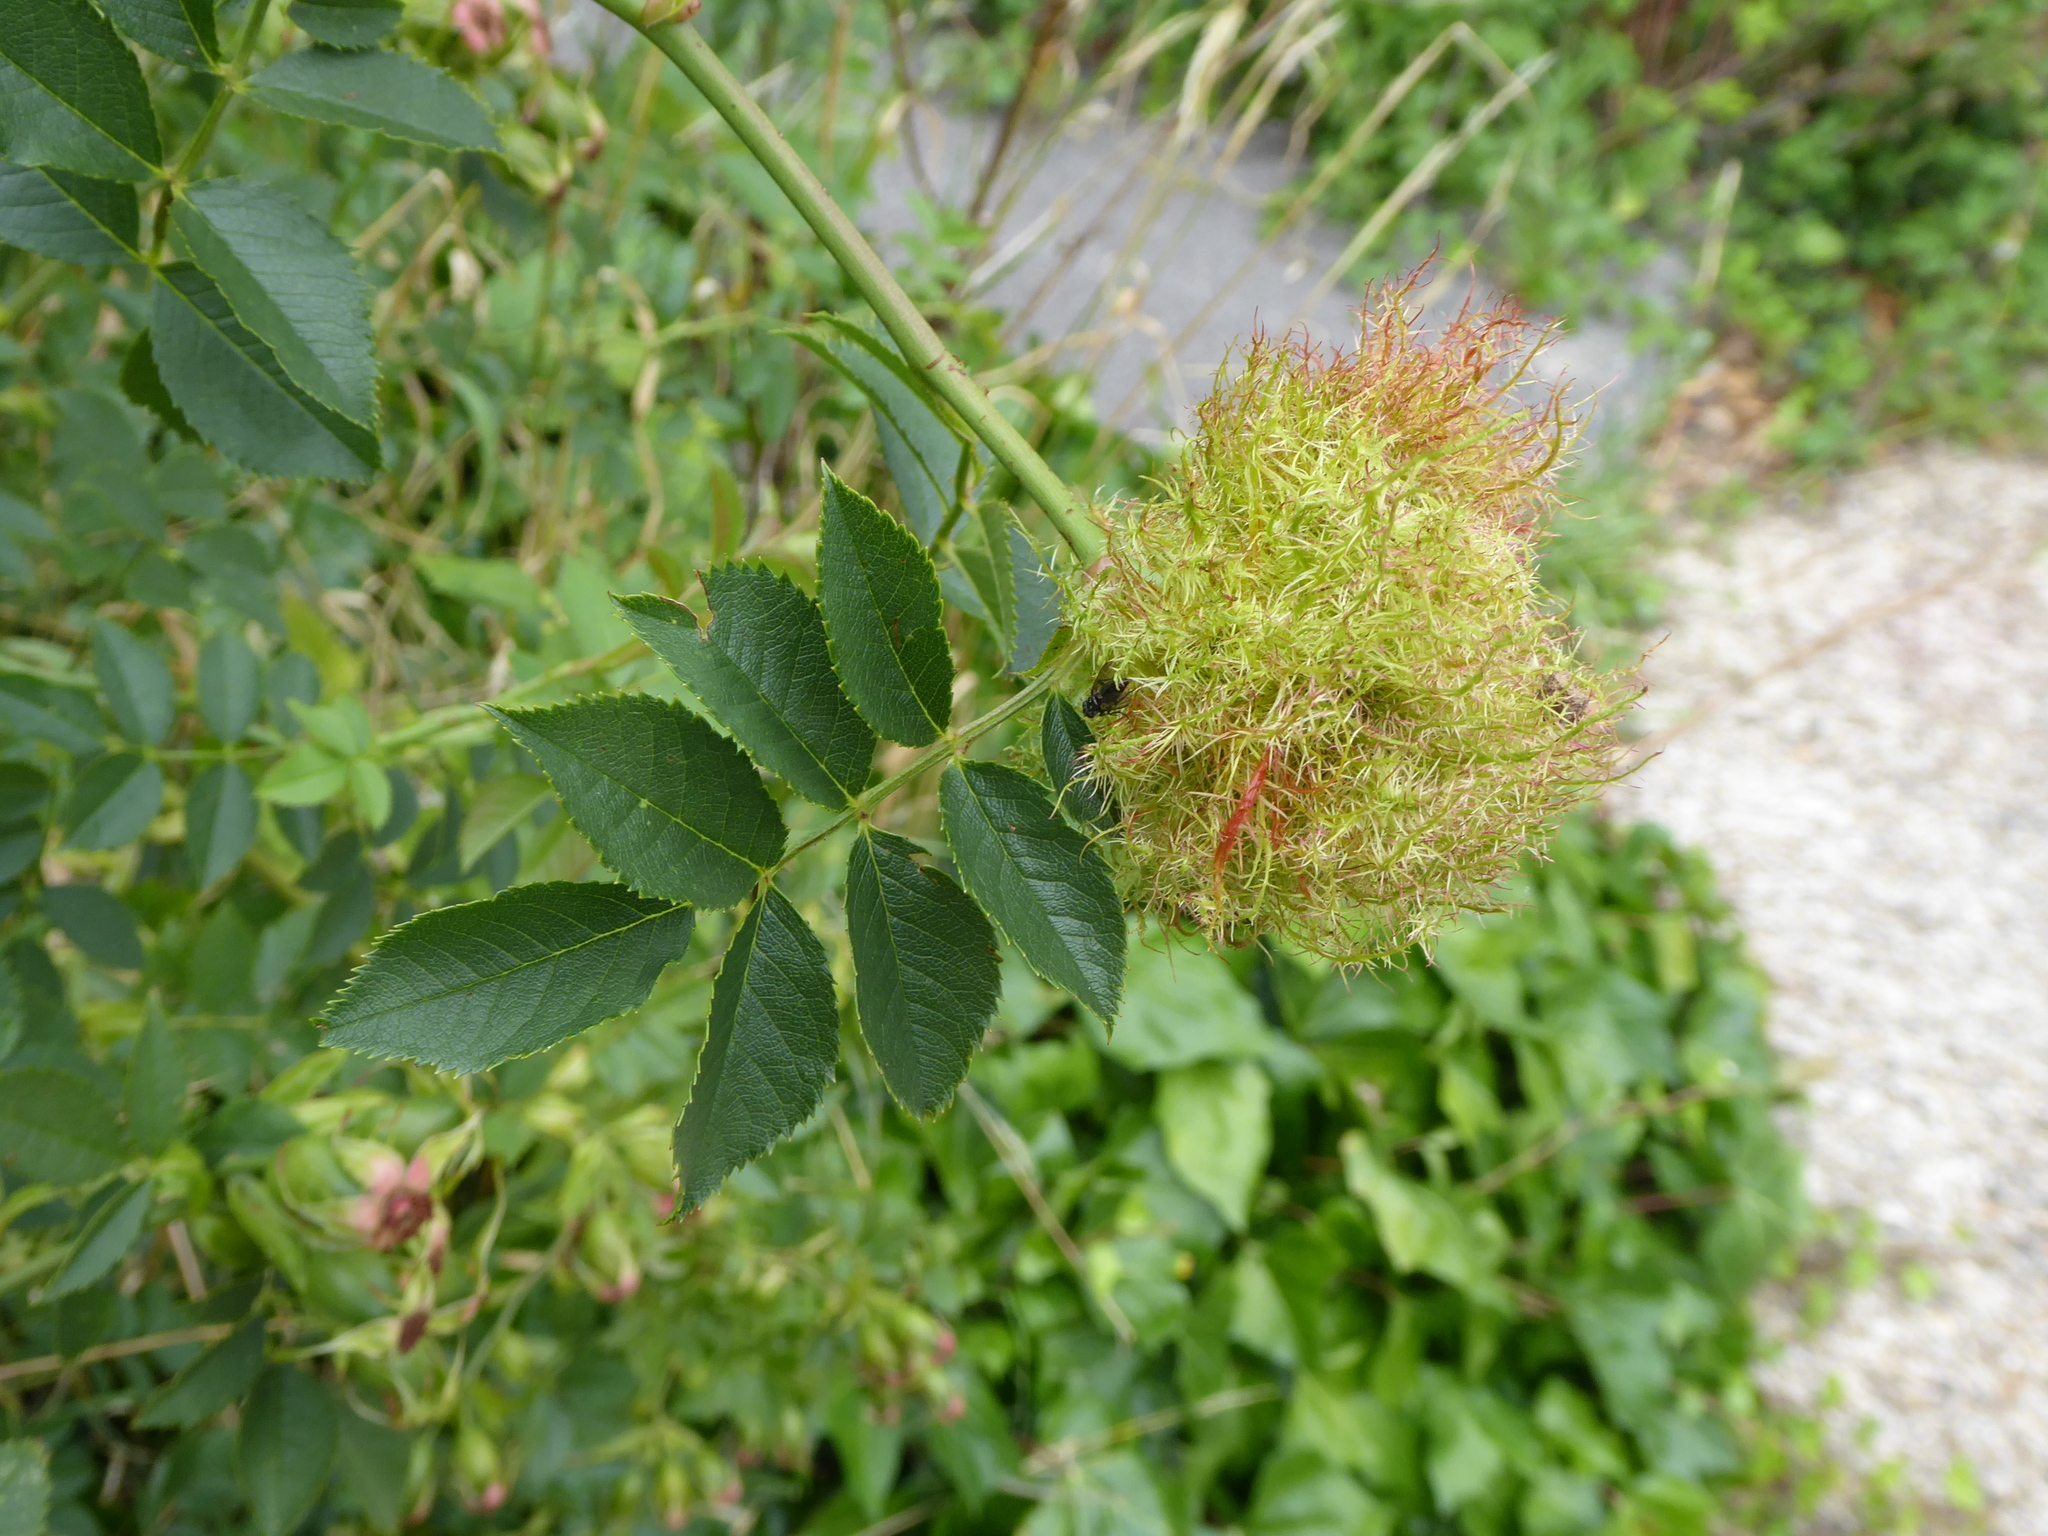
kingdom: Animalia
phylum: Arthropoda
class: Insecta
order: Hymenoptera
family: Cynipidae
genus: Diplolepis
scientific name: Diplolepis rosae
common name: Bedeguar gall
